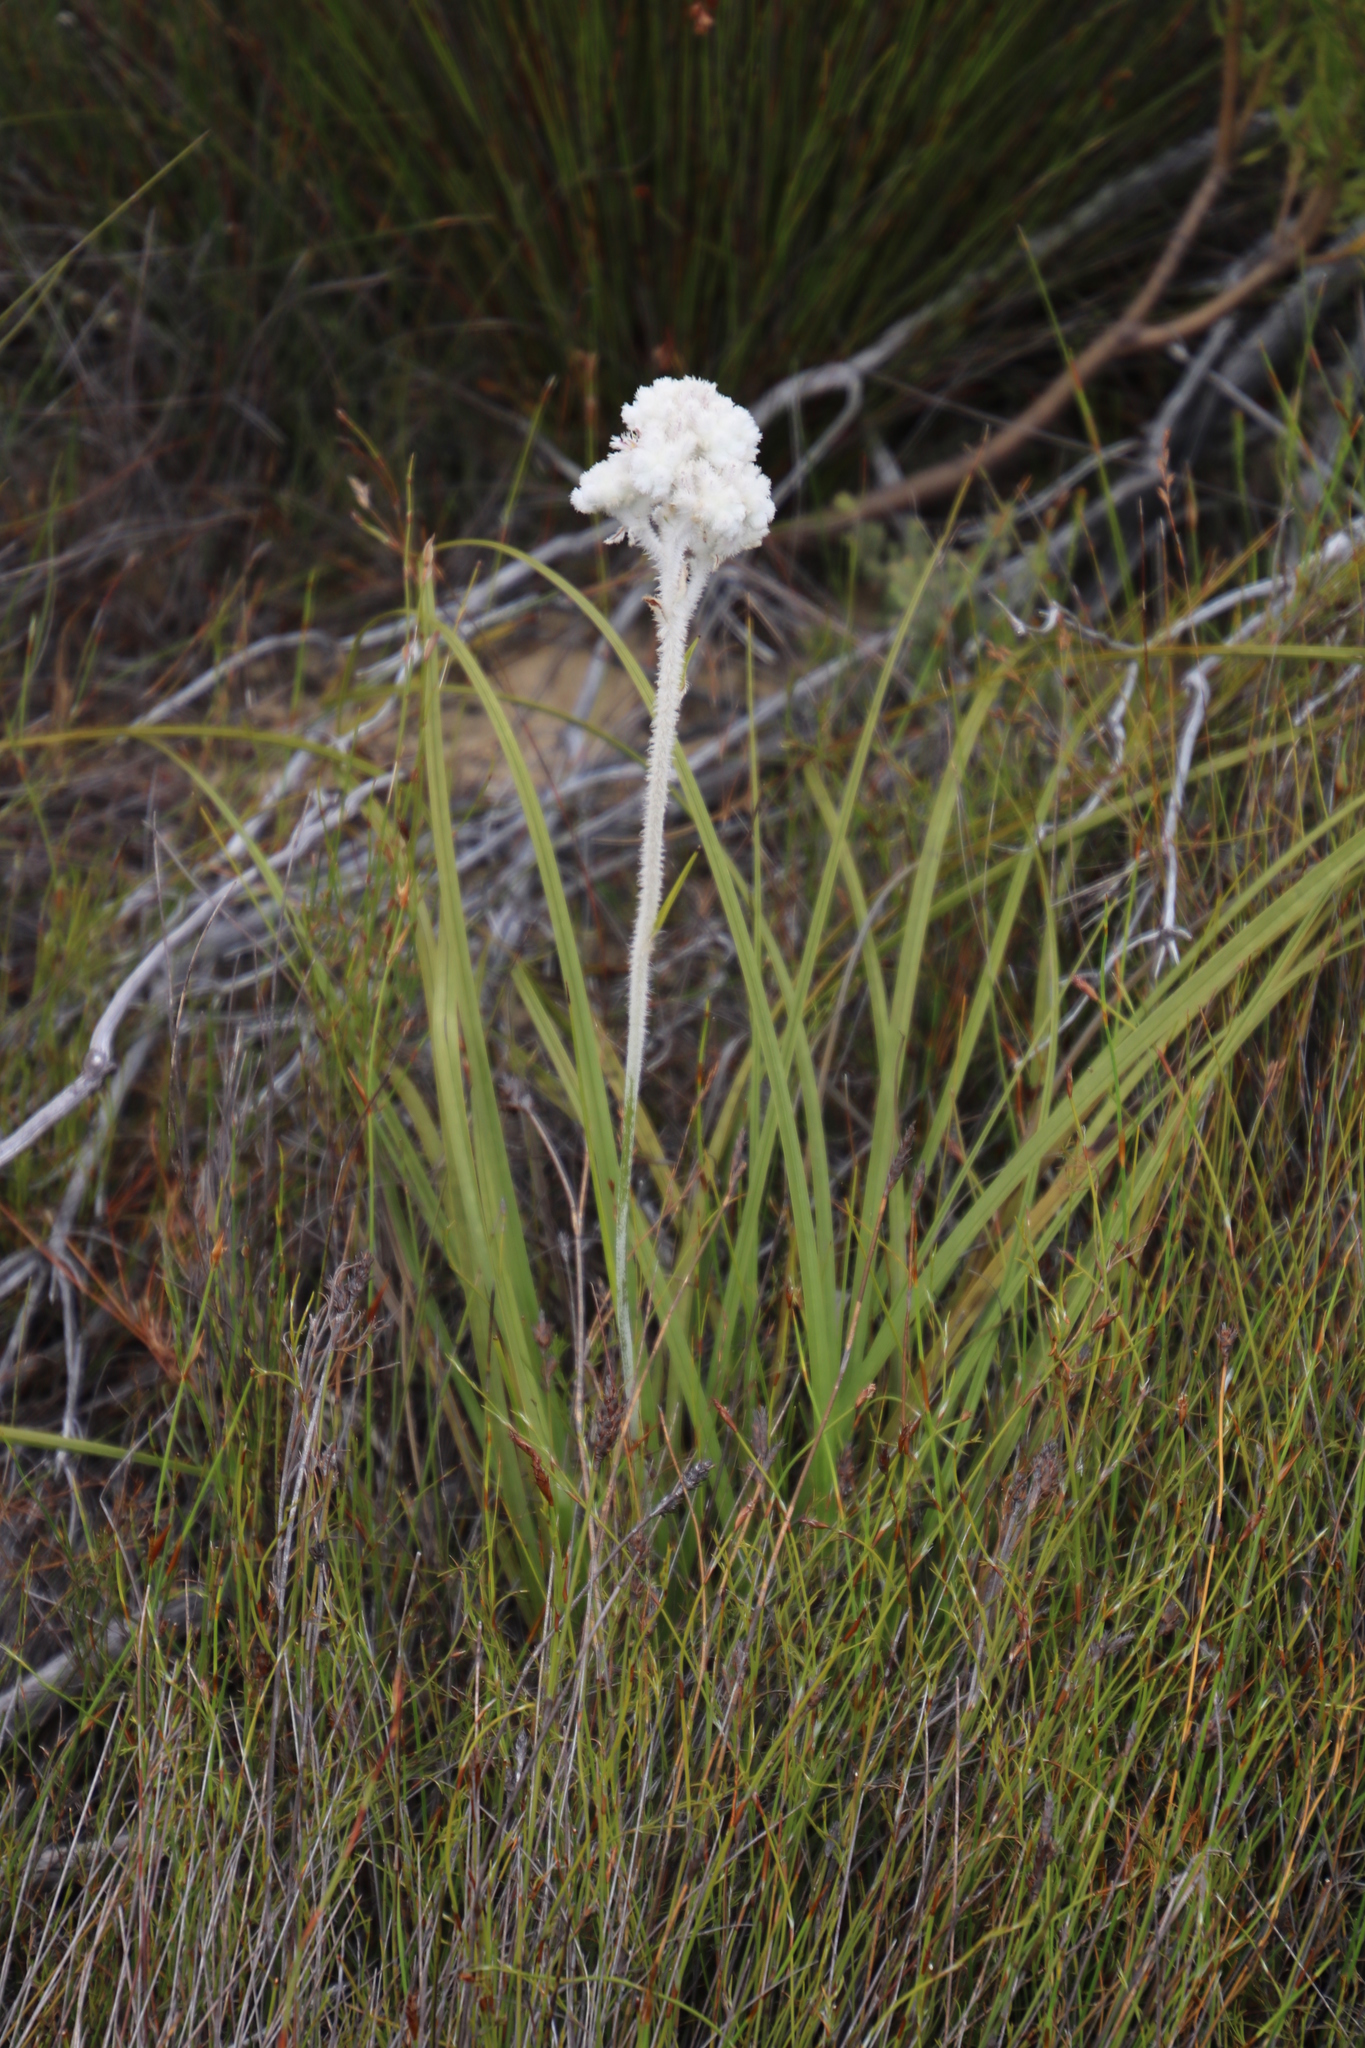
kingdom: Plantae
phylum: Tracheophyta
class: Liliopsida
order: Asparagales
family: Lanariaceae
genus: Lanaria
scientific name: Lanaria lanata
